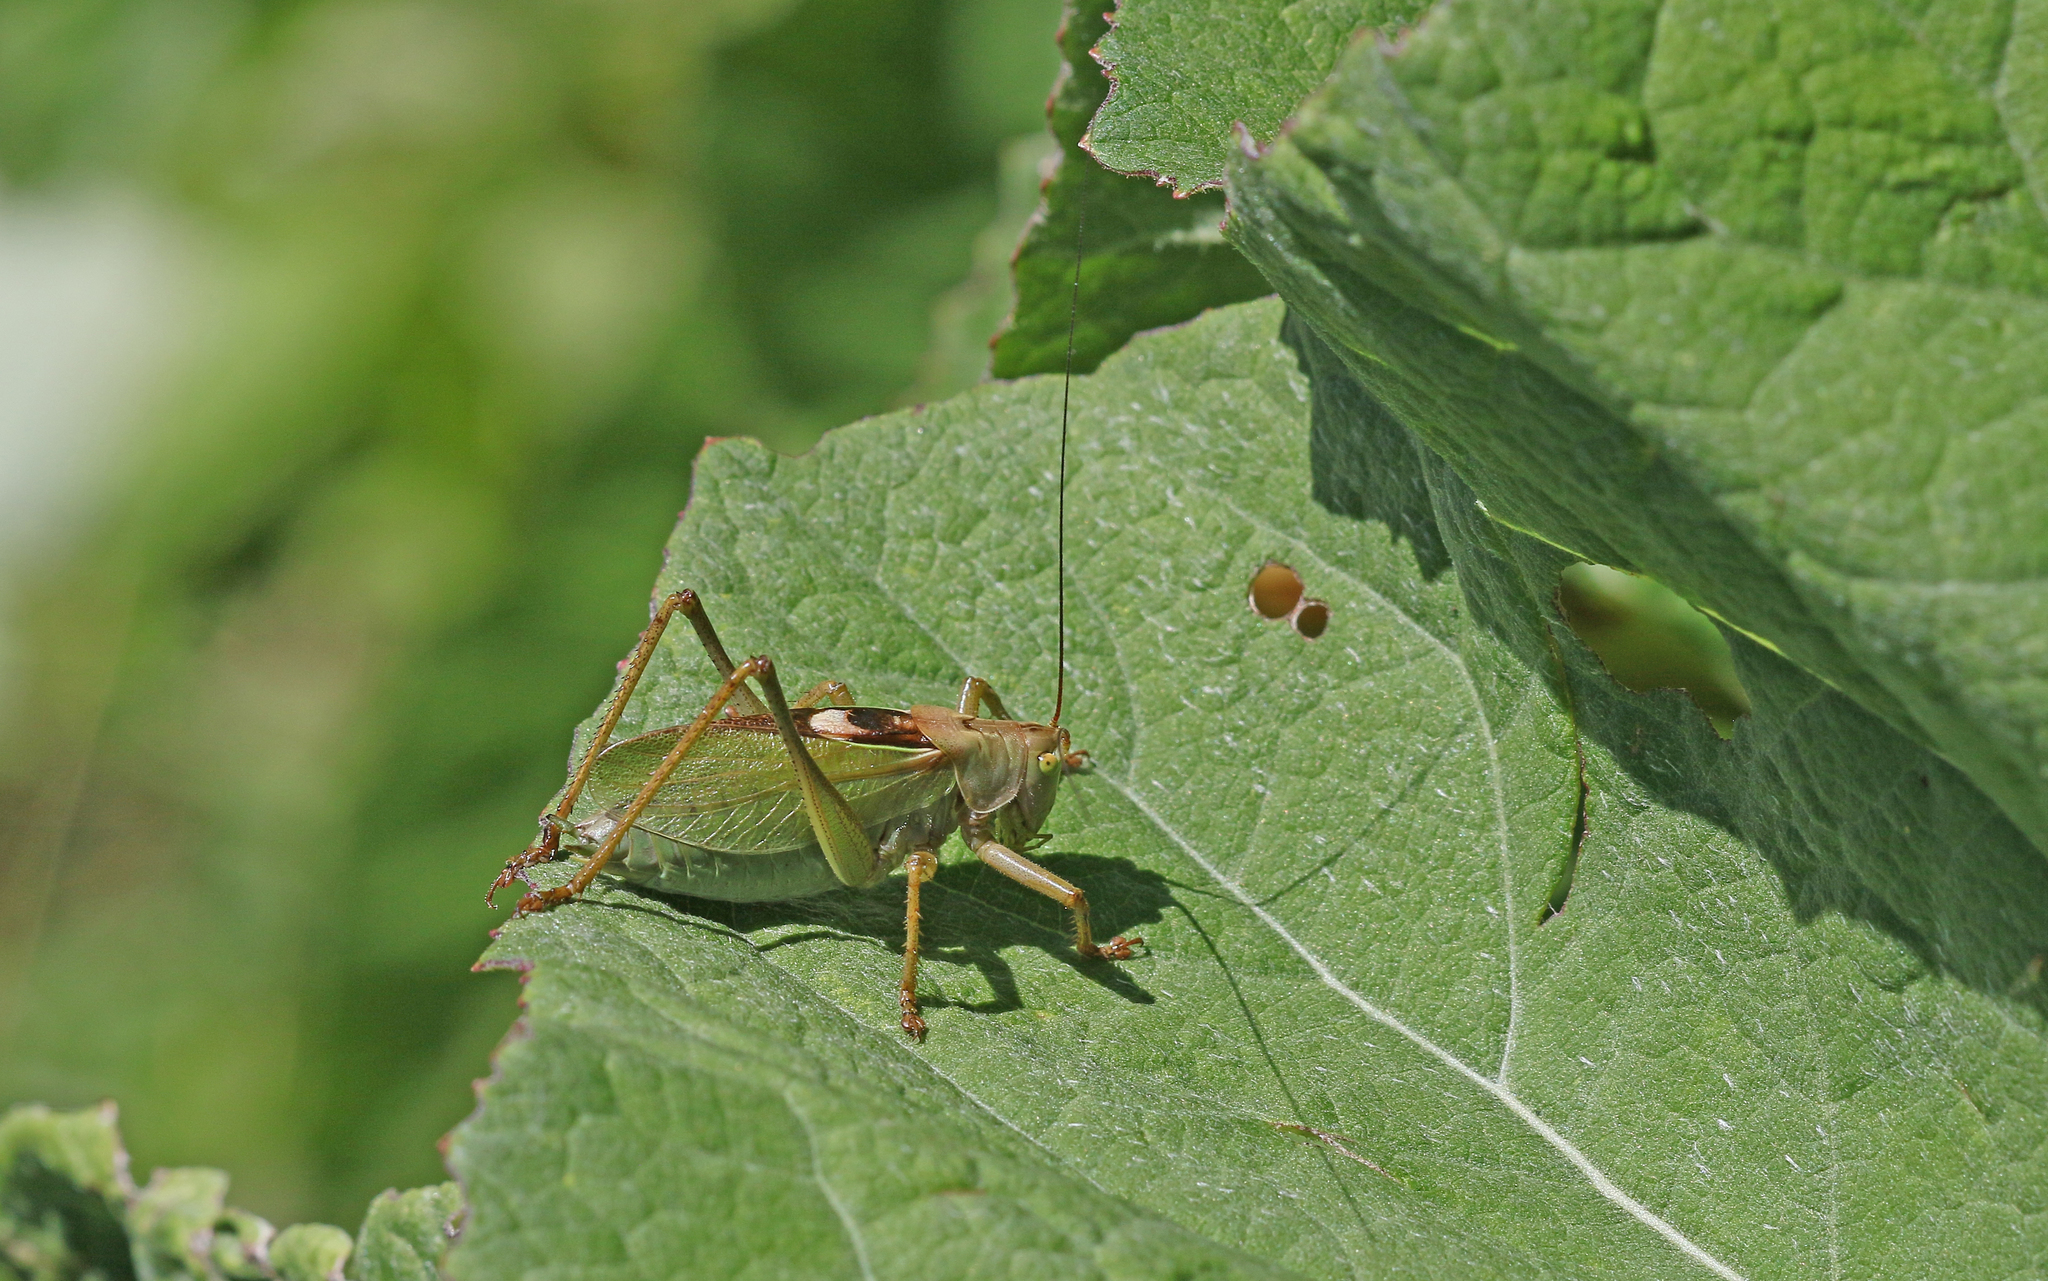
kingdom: Animalia
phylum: Arthropoda
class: Insecta
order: Orthoptera
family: Tettigoniidae
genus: Tettigonia
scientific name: Tettigonia cantans
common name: Upland green bush-cricket
